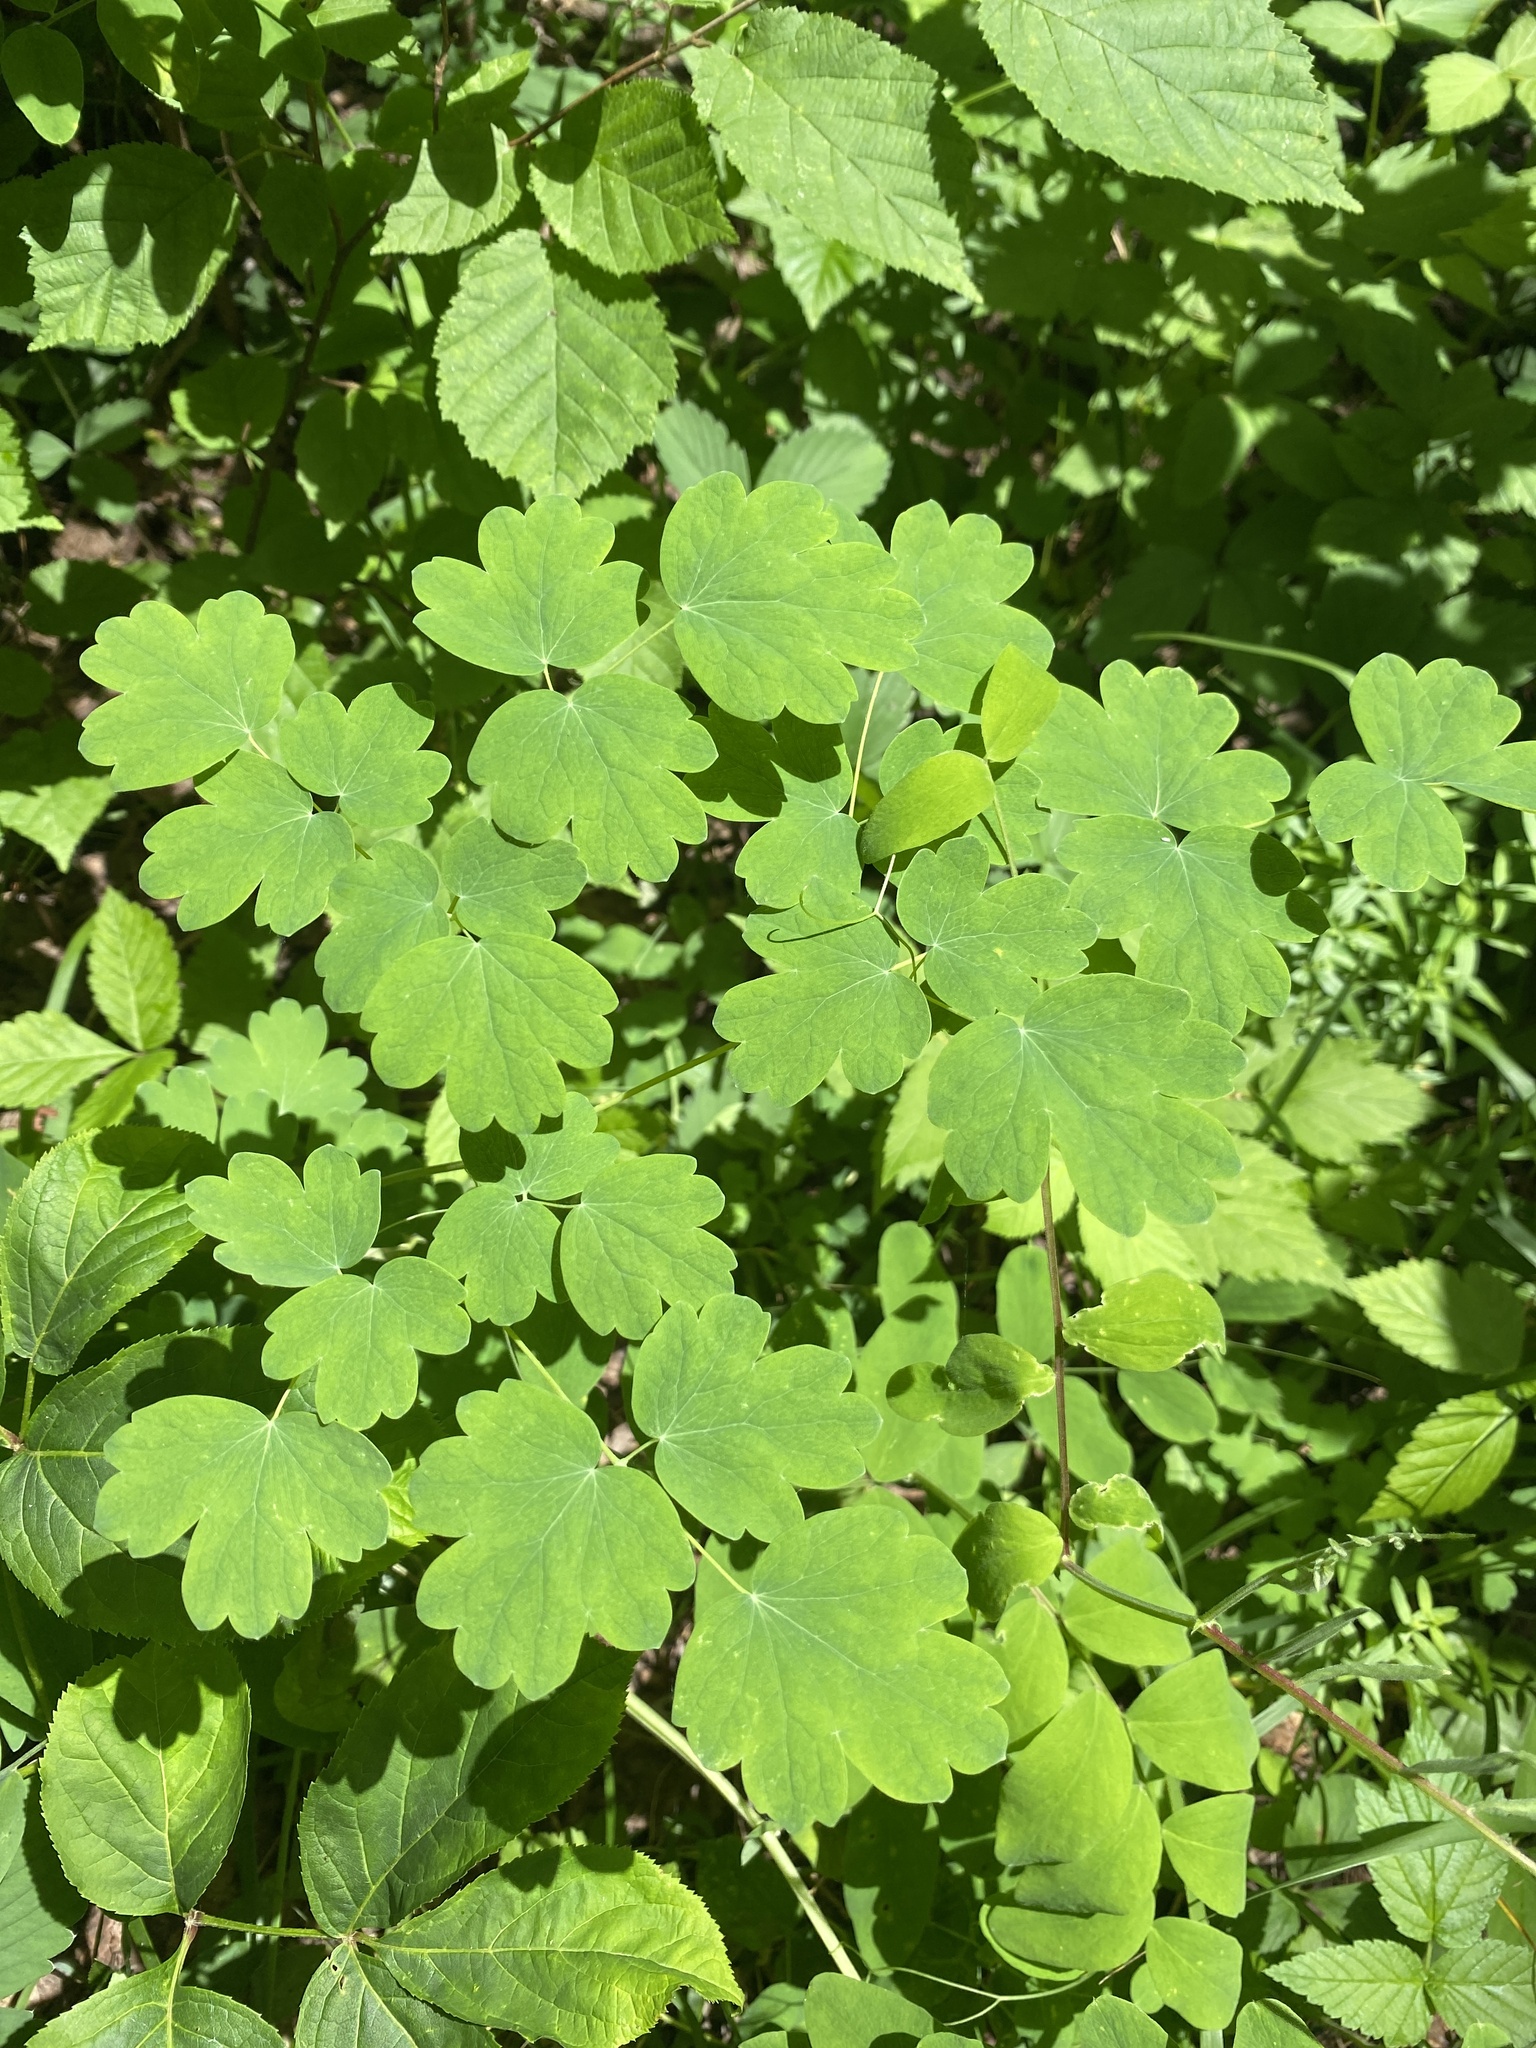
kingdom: Plantae
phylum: Tracheophyta
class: Magnoliopsida
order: Ranunculales
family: Ranunculaceae
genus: Thalictrum
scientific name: Thalictrum venulosum
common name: Early meadow-rue
